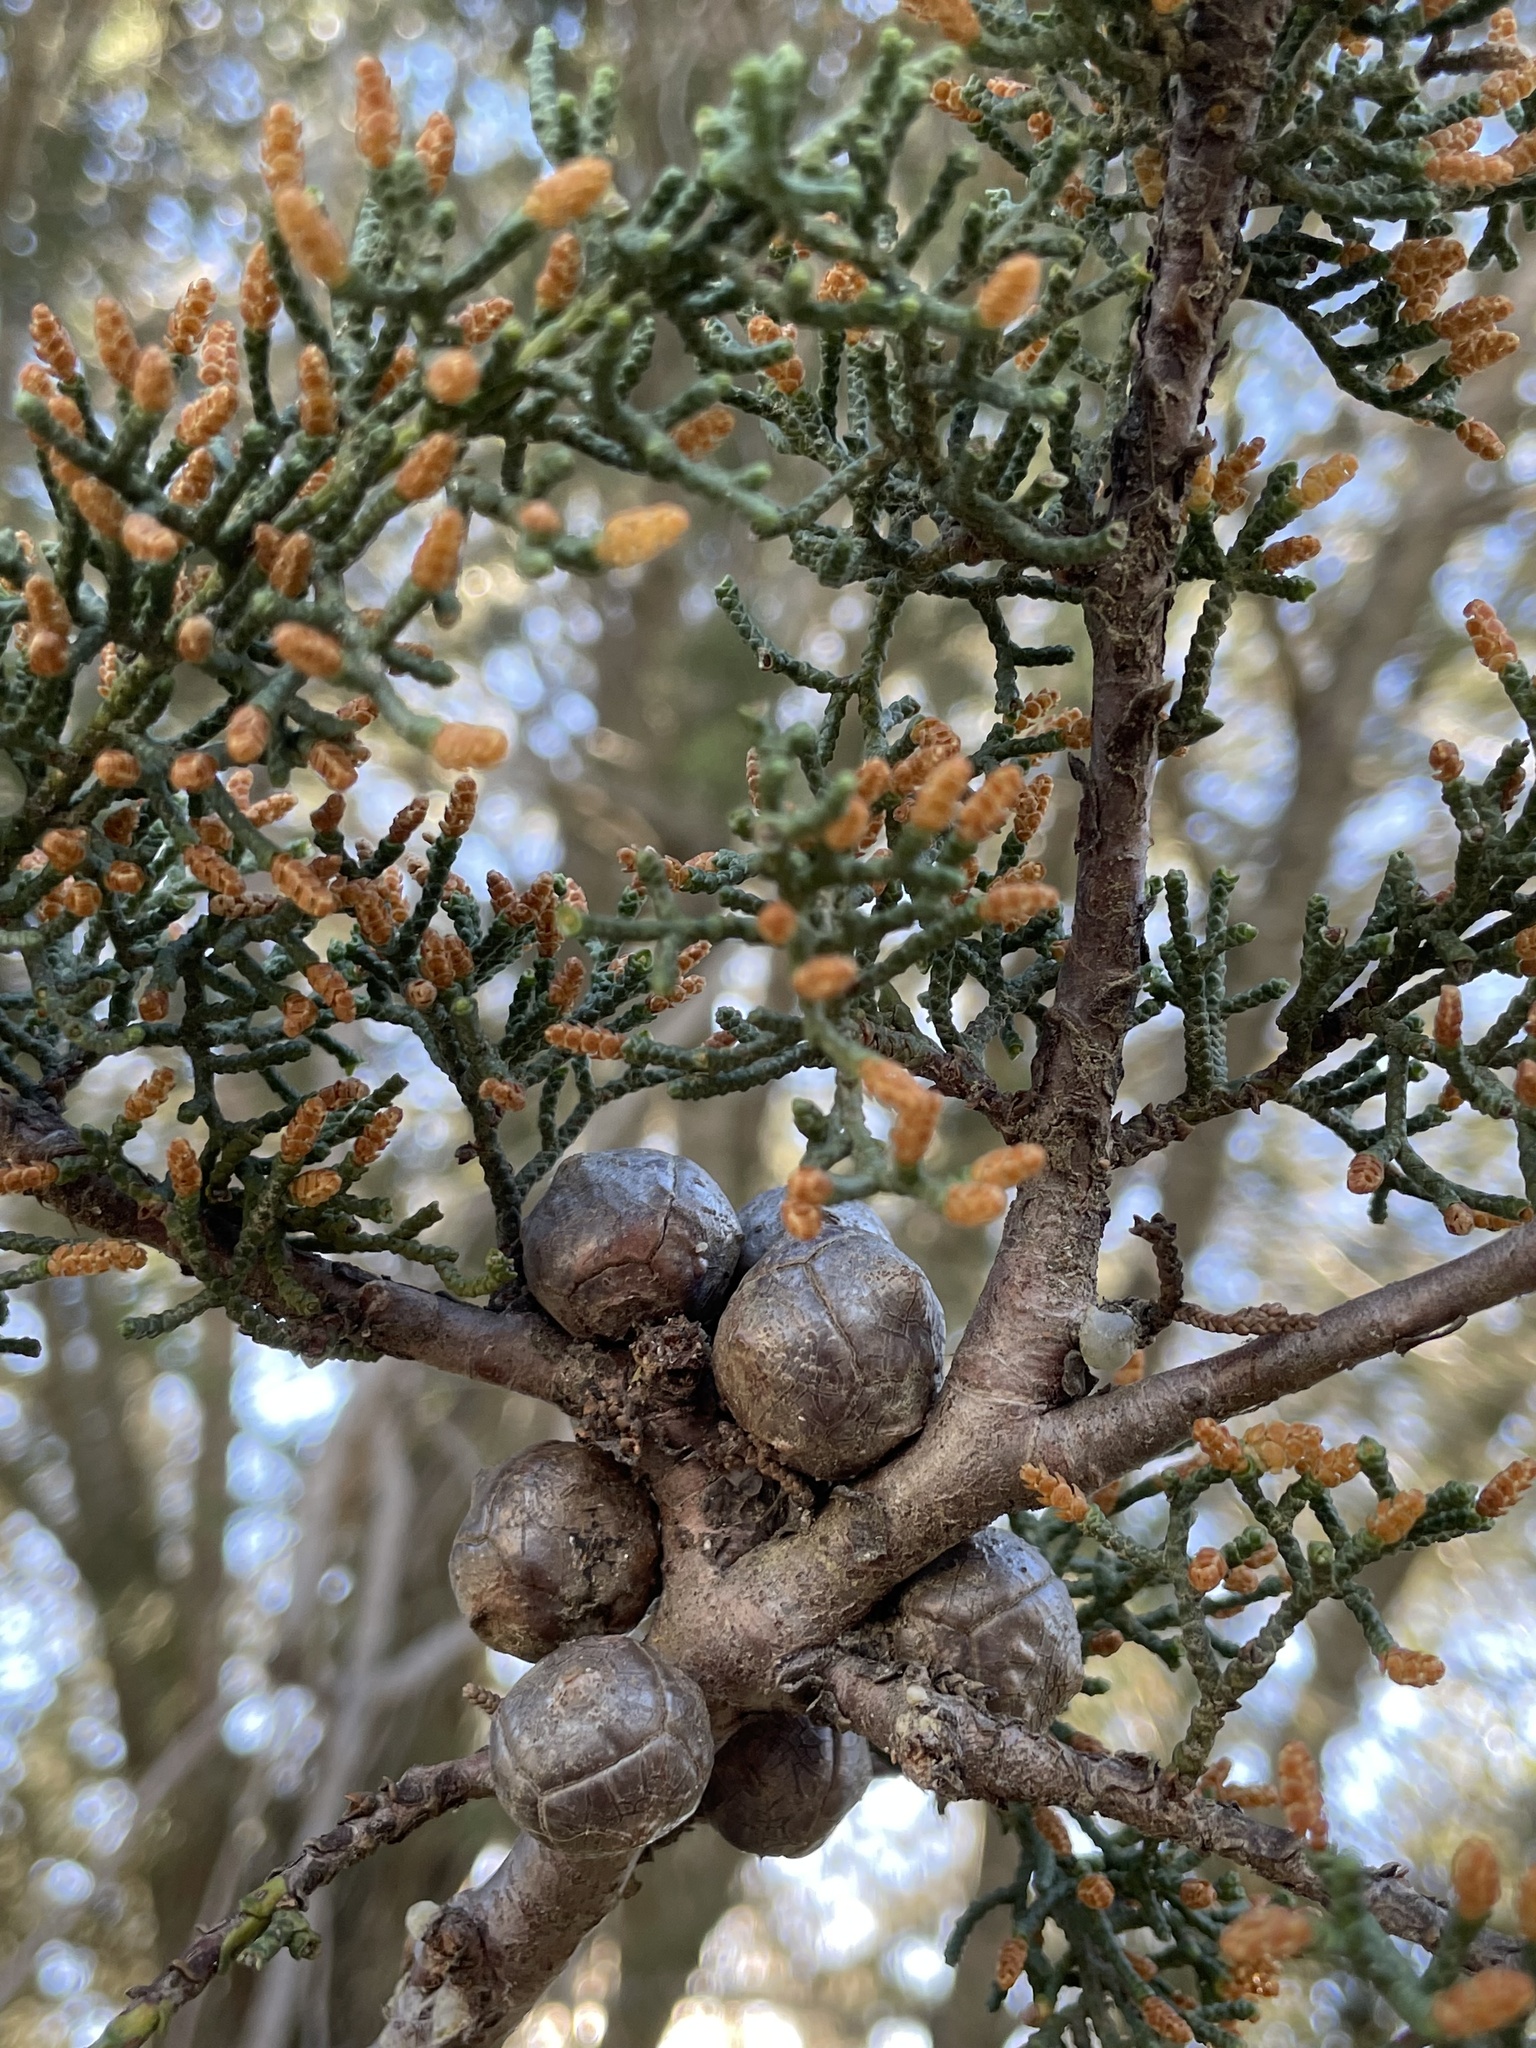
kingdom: Plantae
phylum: Tracheophyta
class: Pinopsida
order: Pinales
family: Cupressaceae
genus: Cupressus
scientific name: Cupressus goveniana
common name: Gowen cypress
